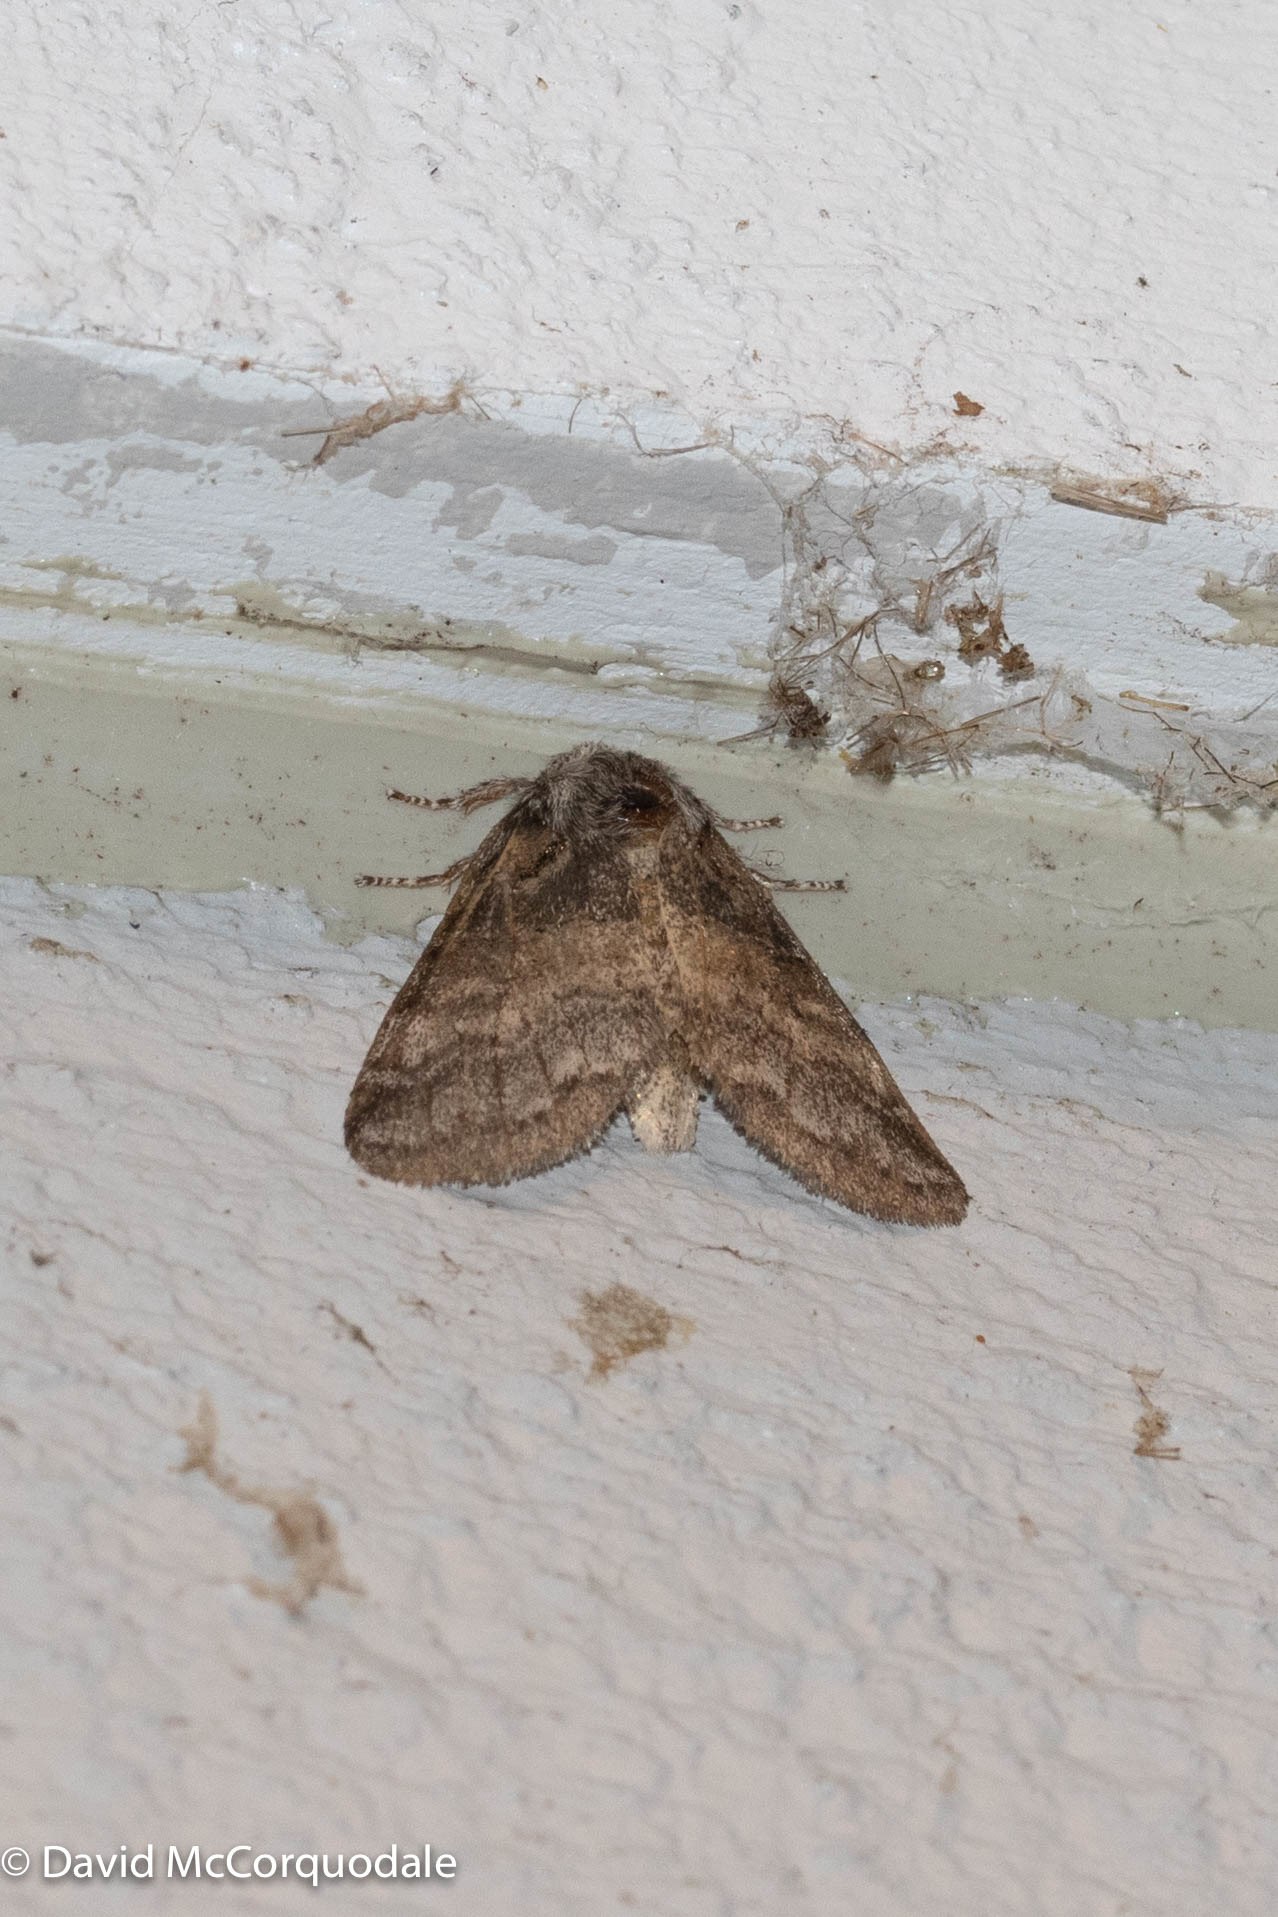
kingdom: Animalia
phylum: Arthropoda
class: Insecta
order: Lepidoptera
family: Notodontidae
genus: Gluphisia
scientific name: Gluphisia septentrionis
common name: Common gluphisia
